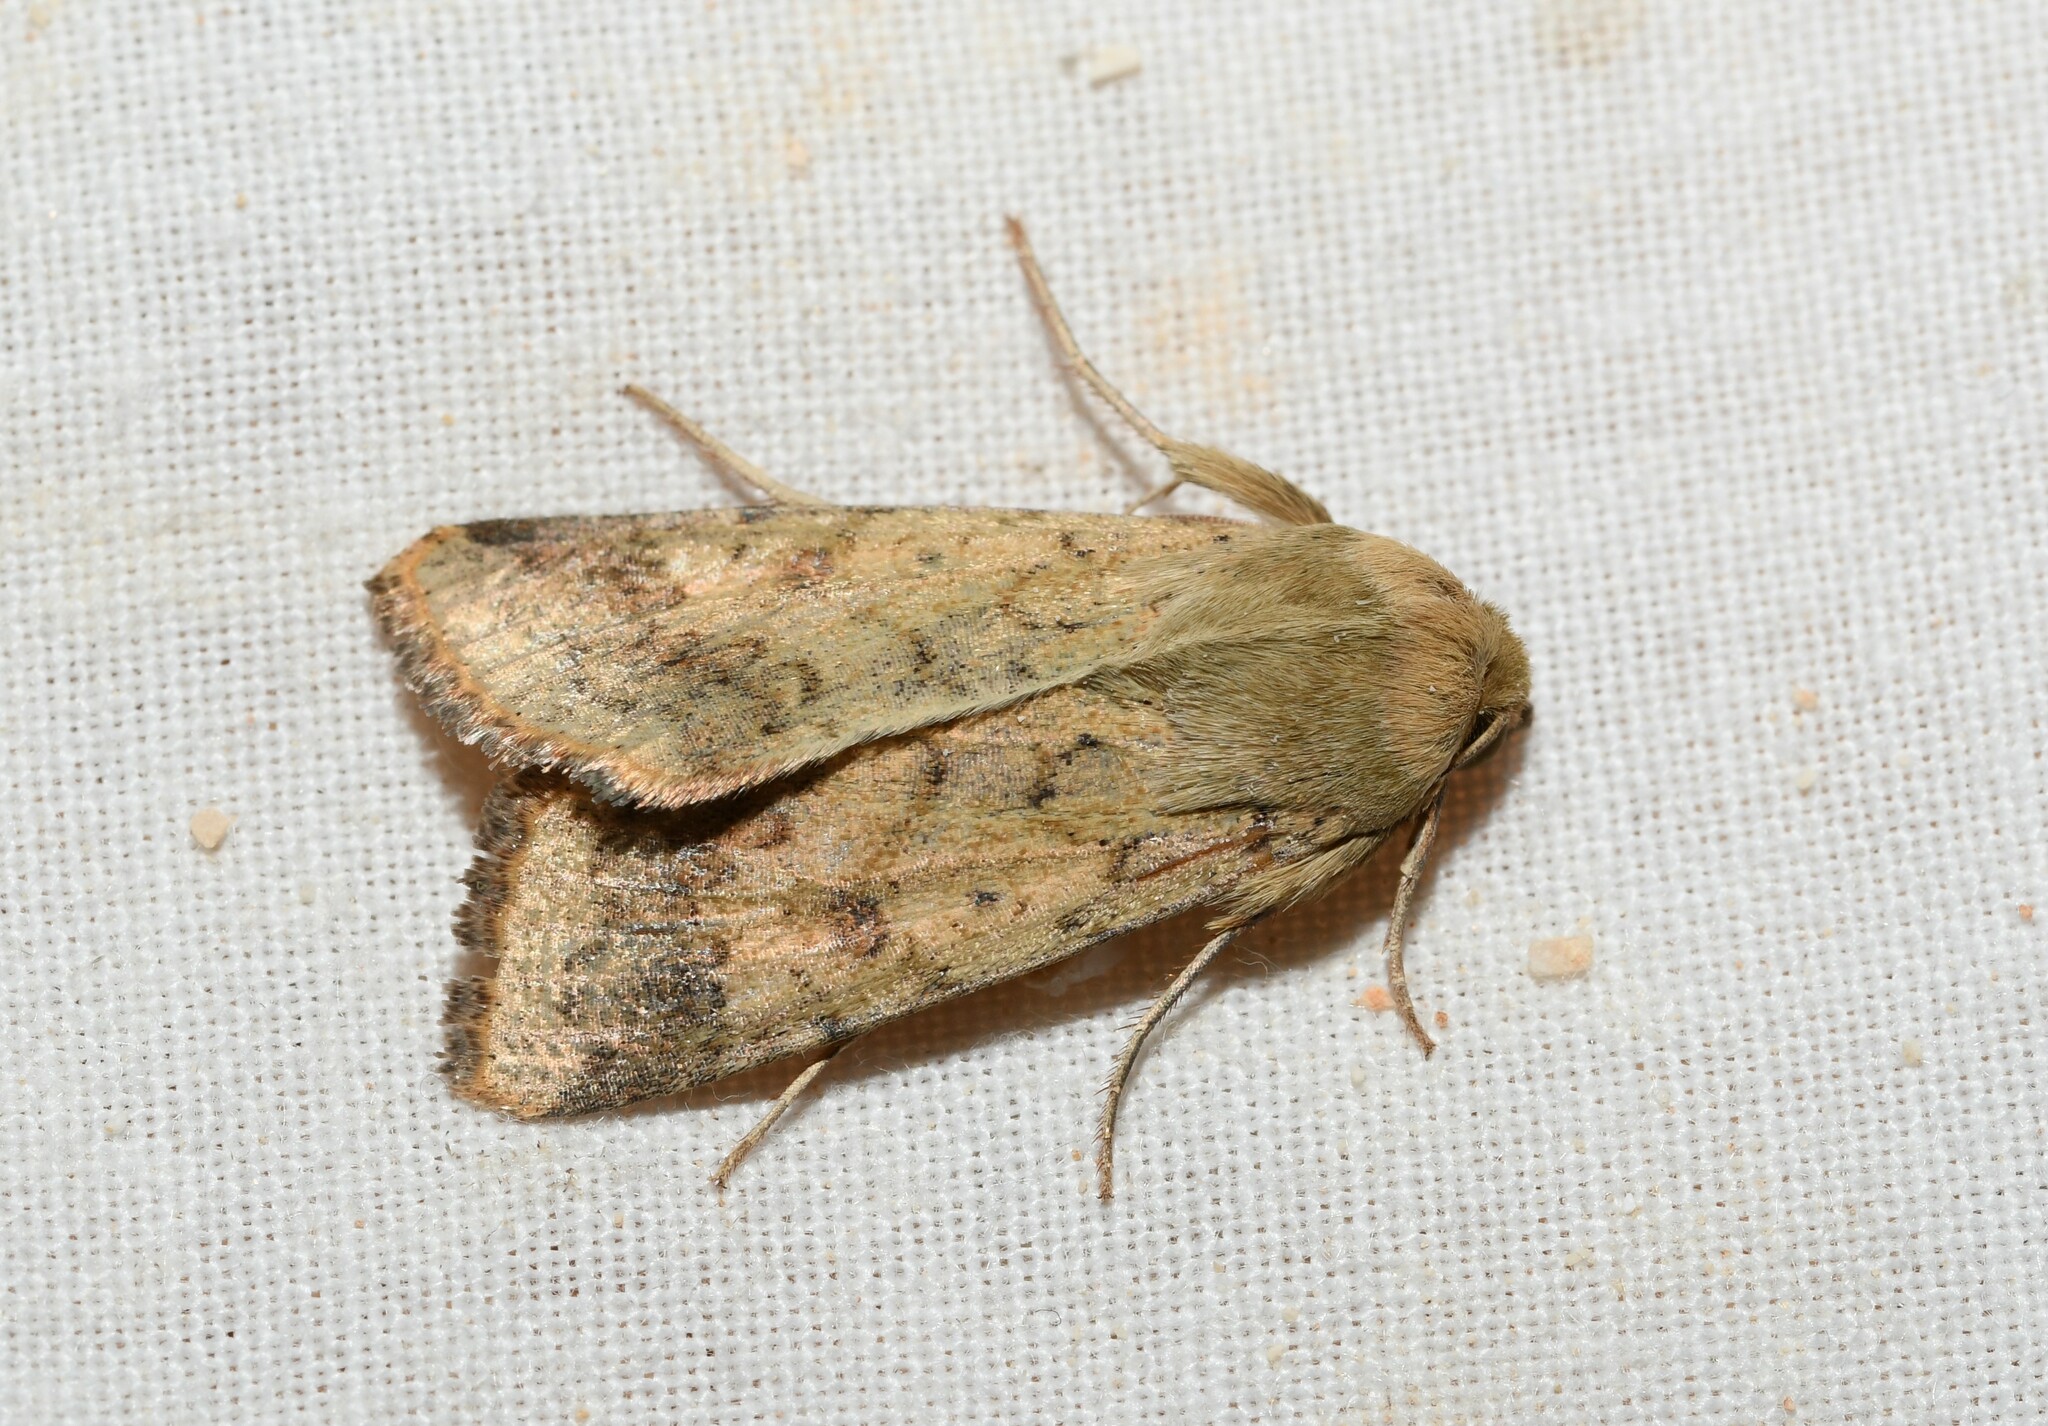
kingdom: Animalia
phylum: Arthropoda
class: Insecta
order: Lepidoptera
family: Noctuidae
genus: Helicoverpa
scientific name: Helicoverpa armigera
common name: Cotton bollworm
